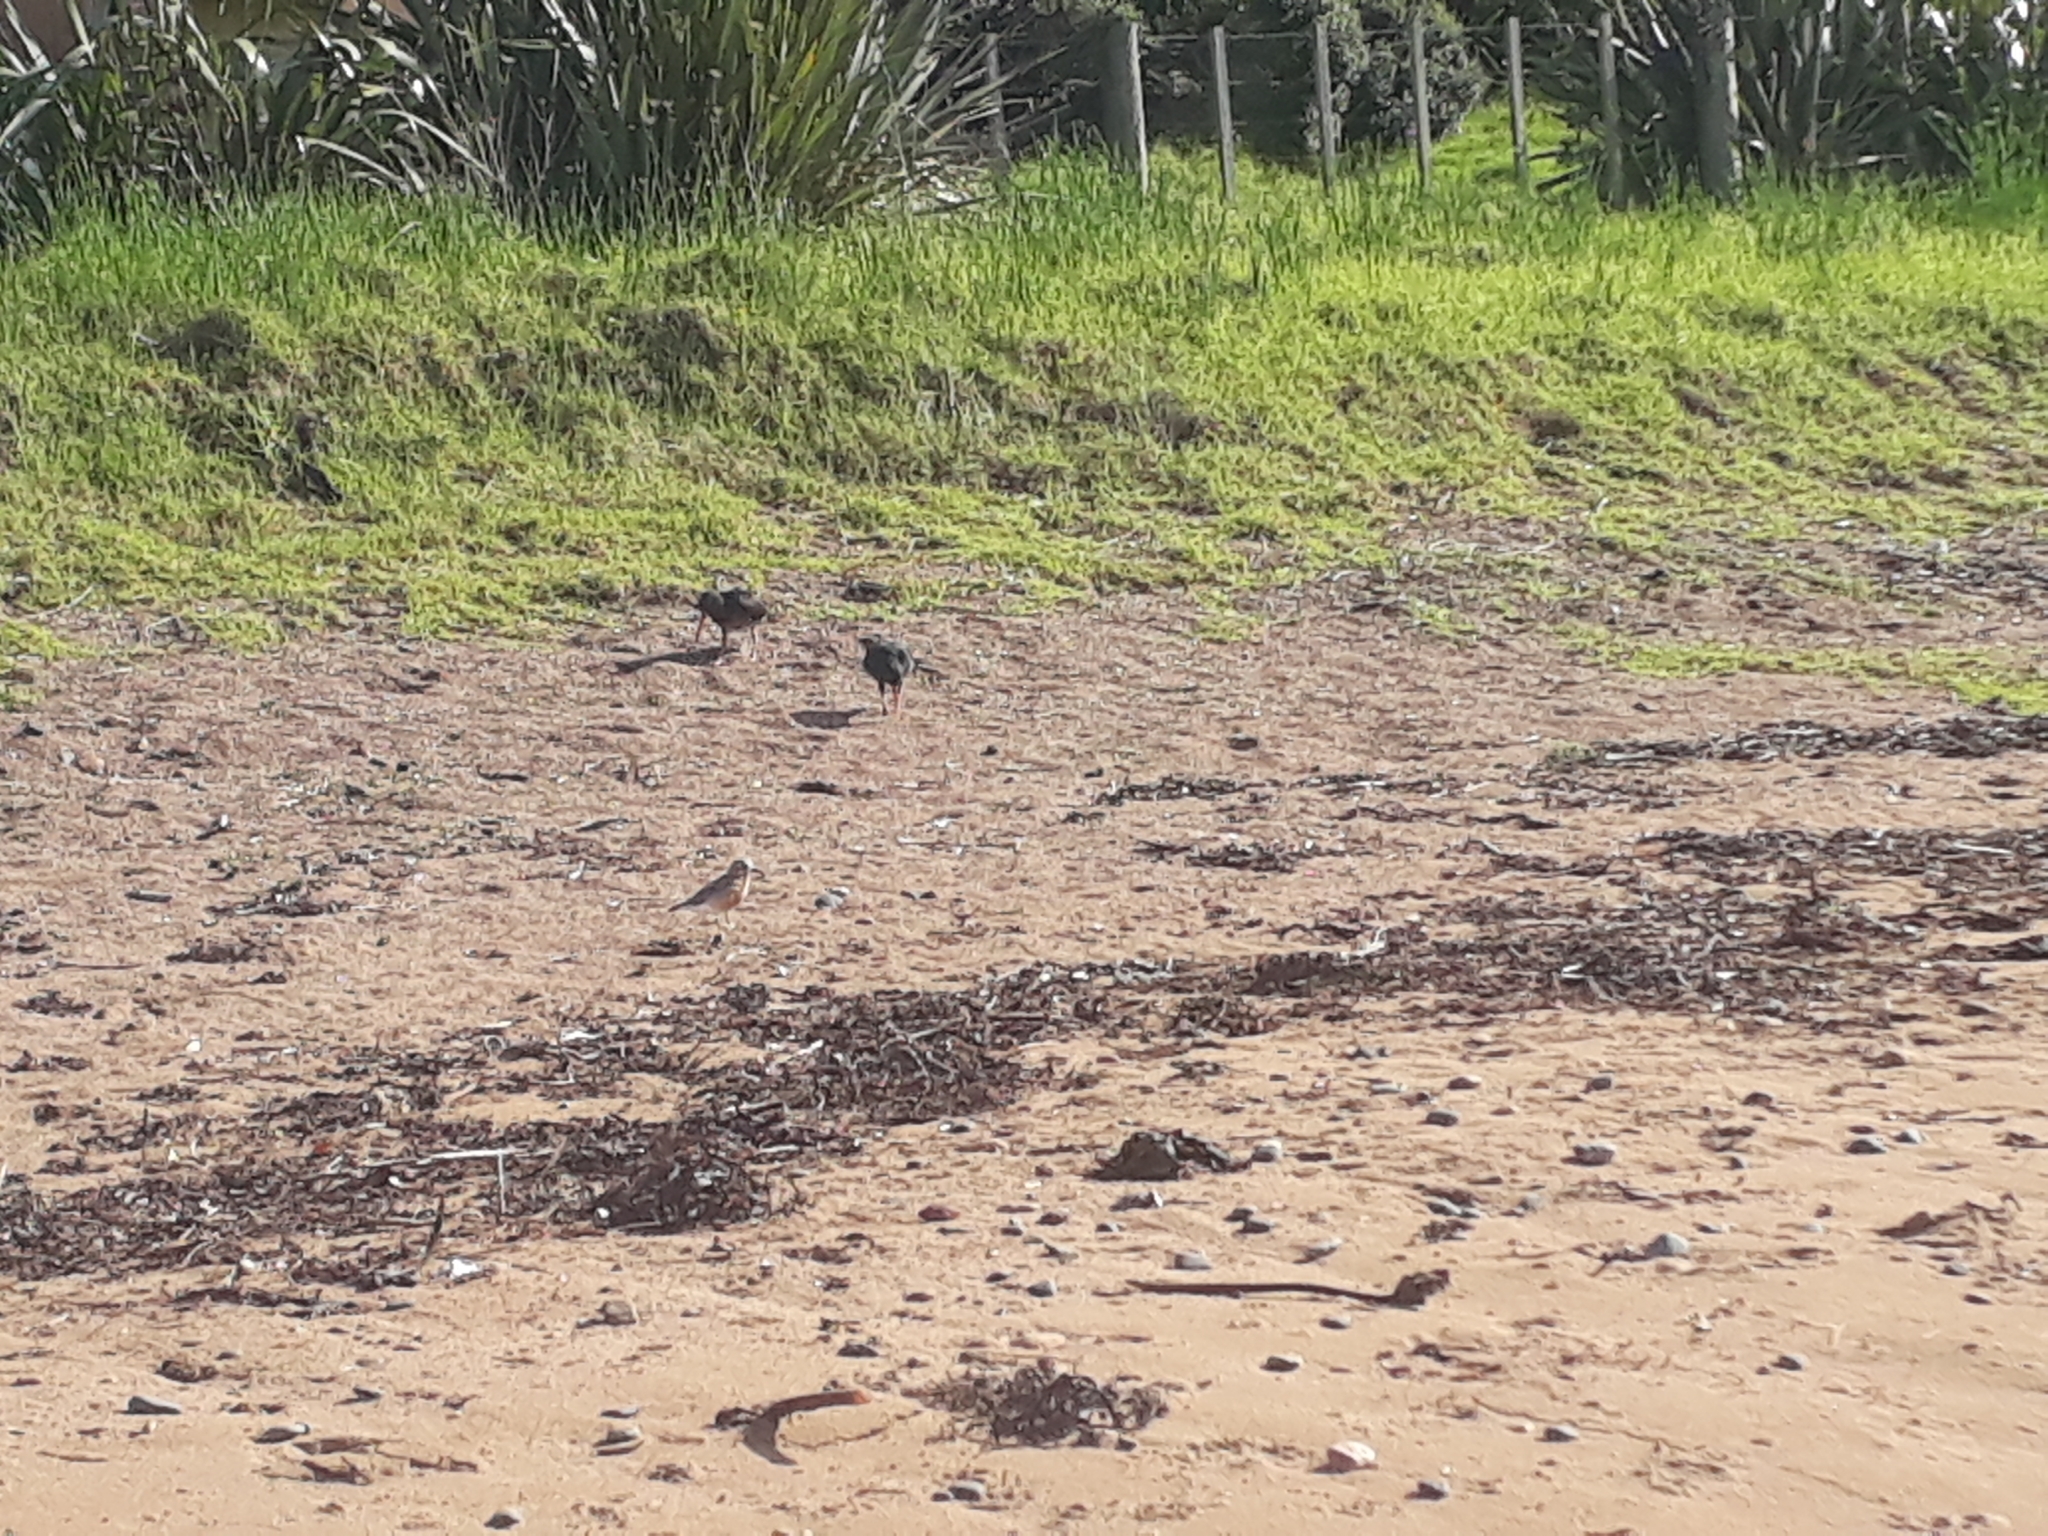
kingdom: Animalia
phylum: Chordata
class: Aves
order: Charadriiformes
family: Charadriidae
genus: Anarhynchus
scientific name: Anarhynchus
